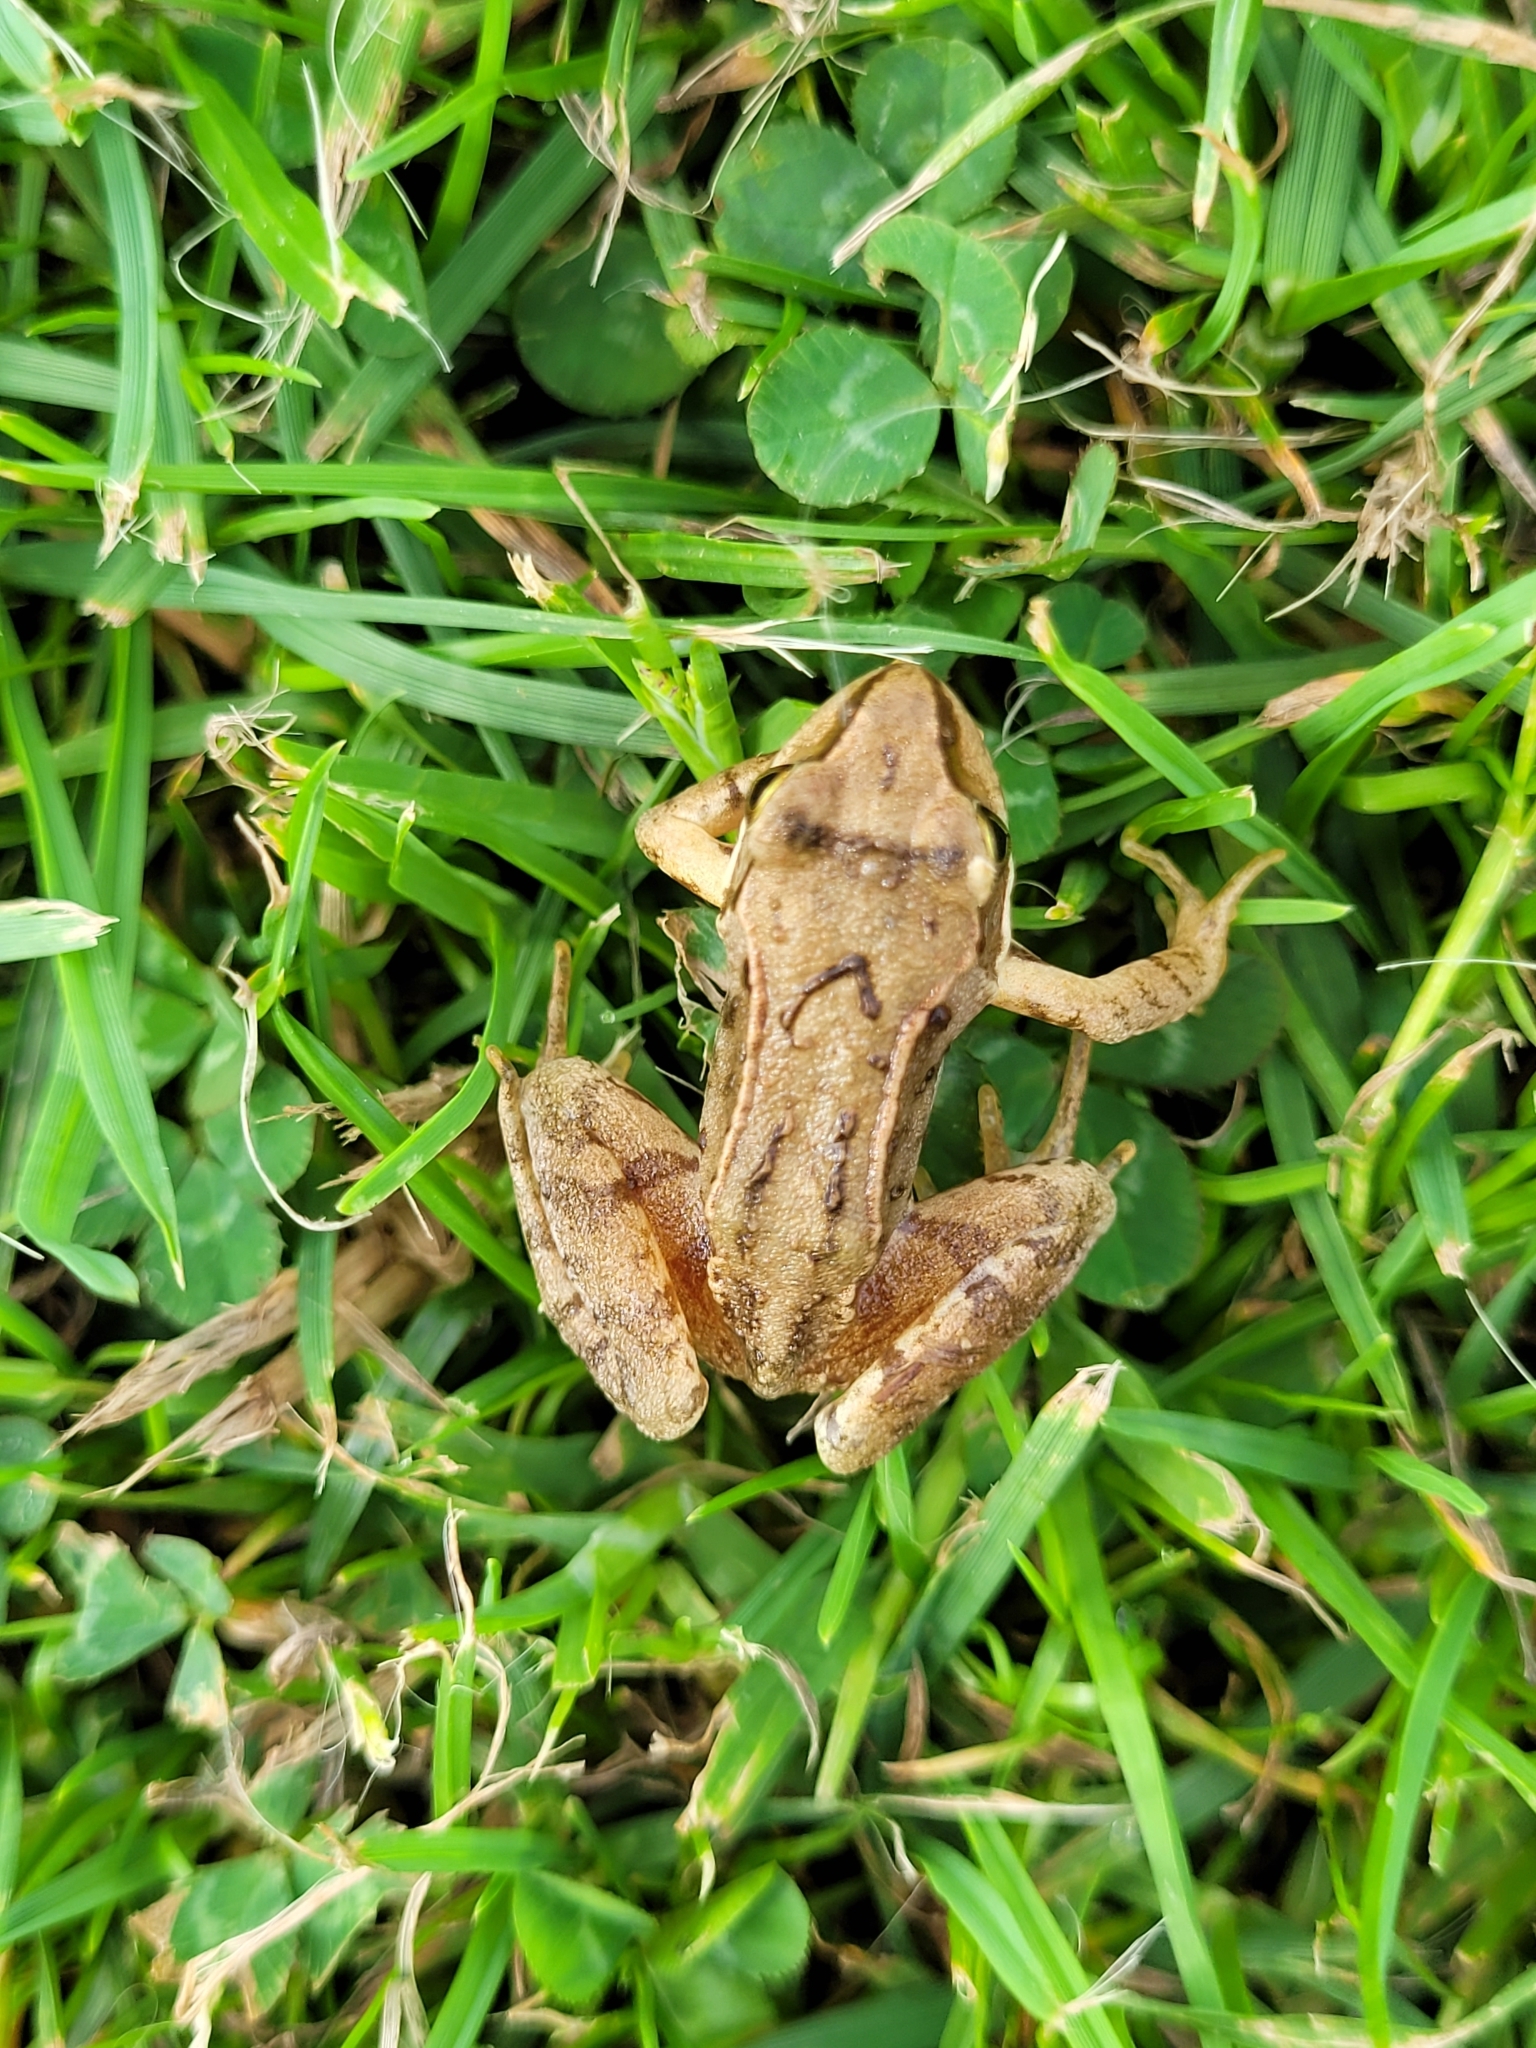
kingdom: Animalia
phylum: Chordata
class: Amphibia
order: Anura
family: Ranidae
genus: Rana
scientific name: Rana temporaria
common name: Common frog
